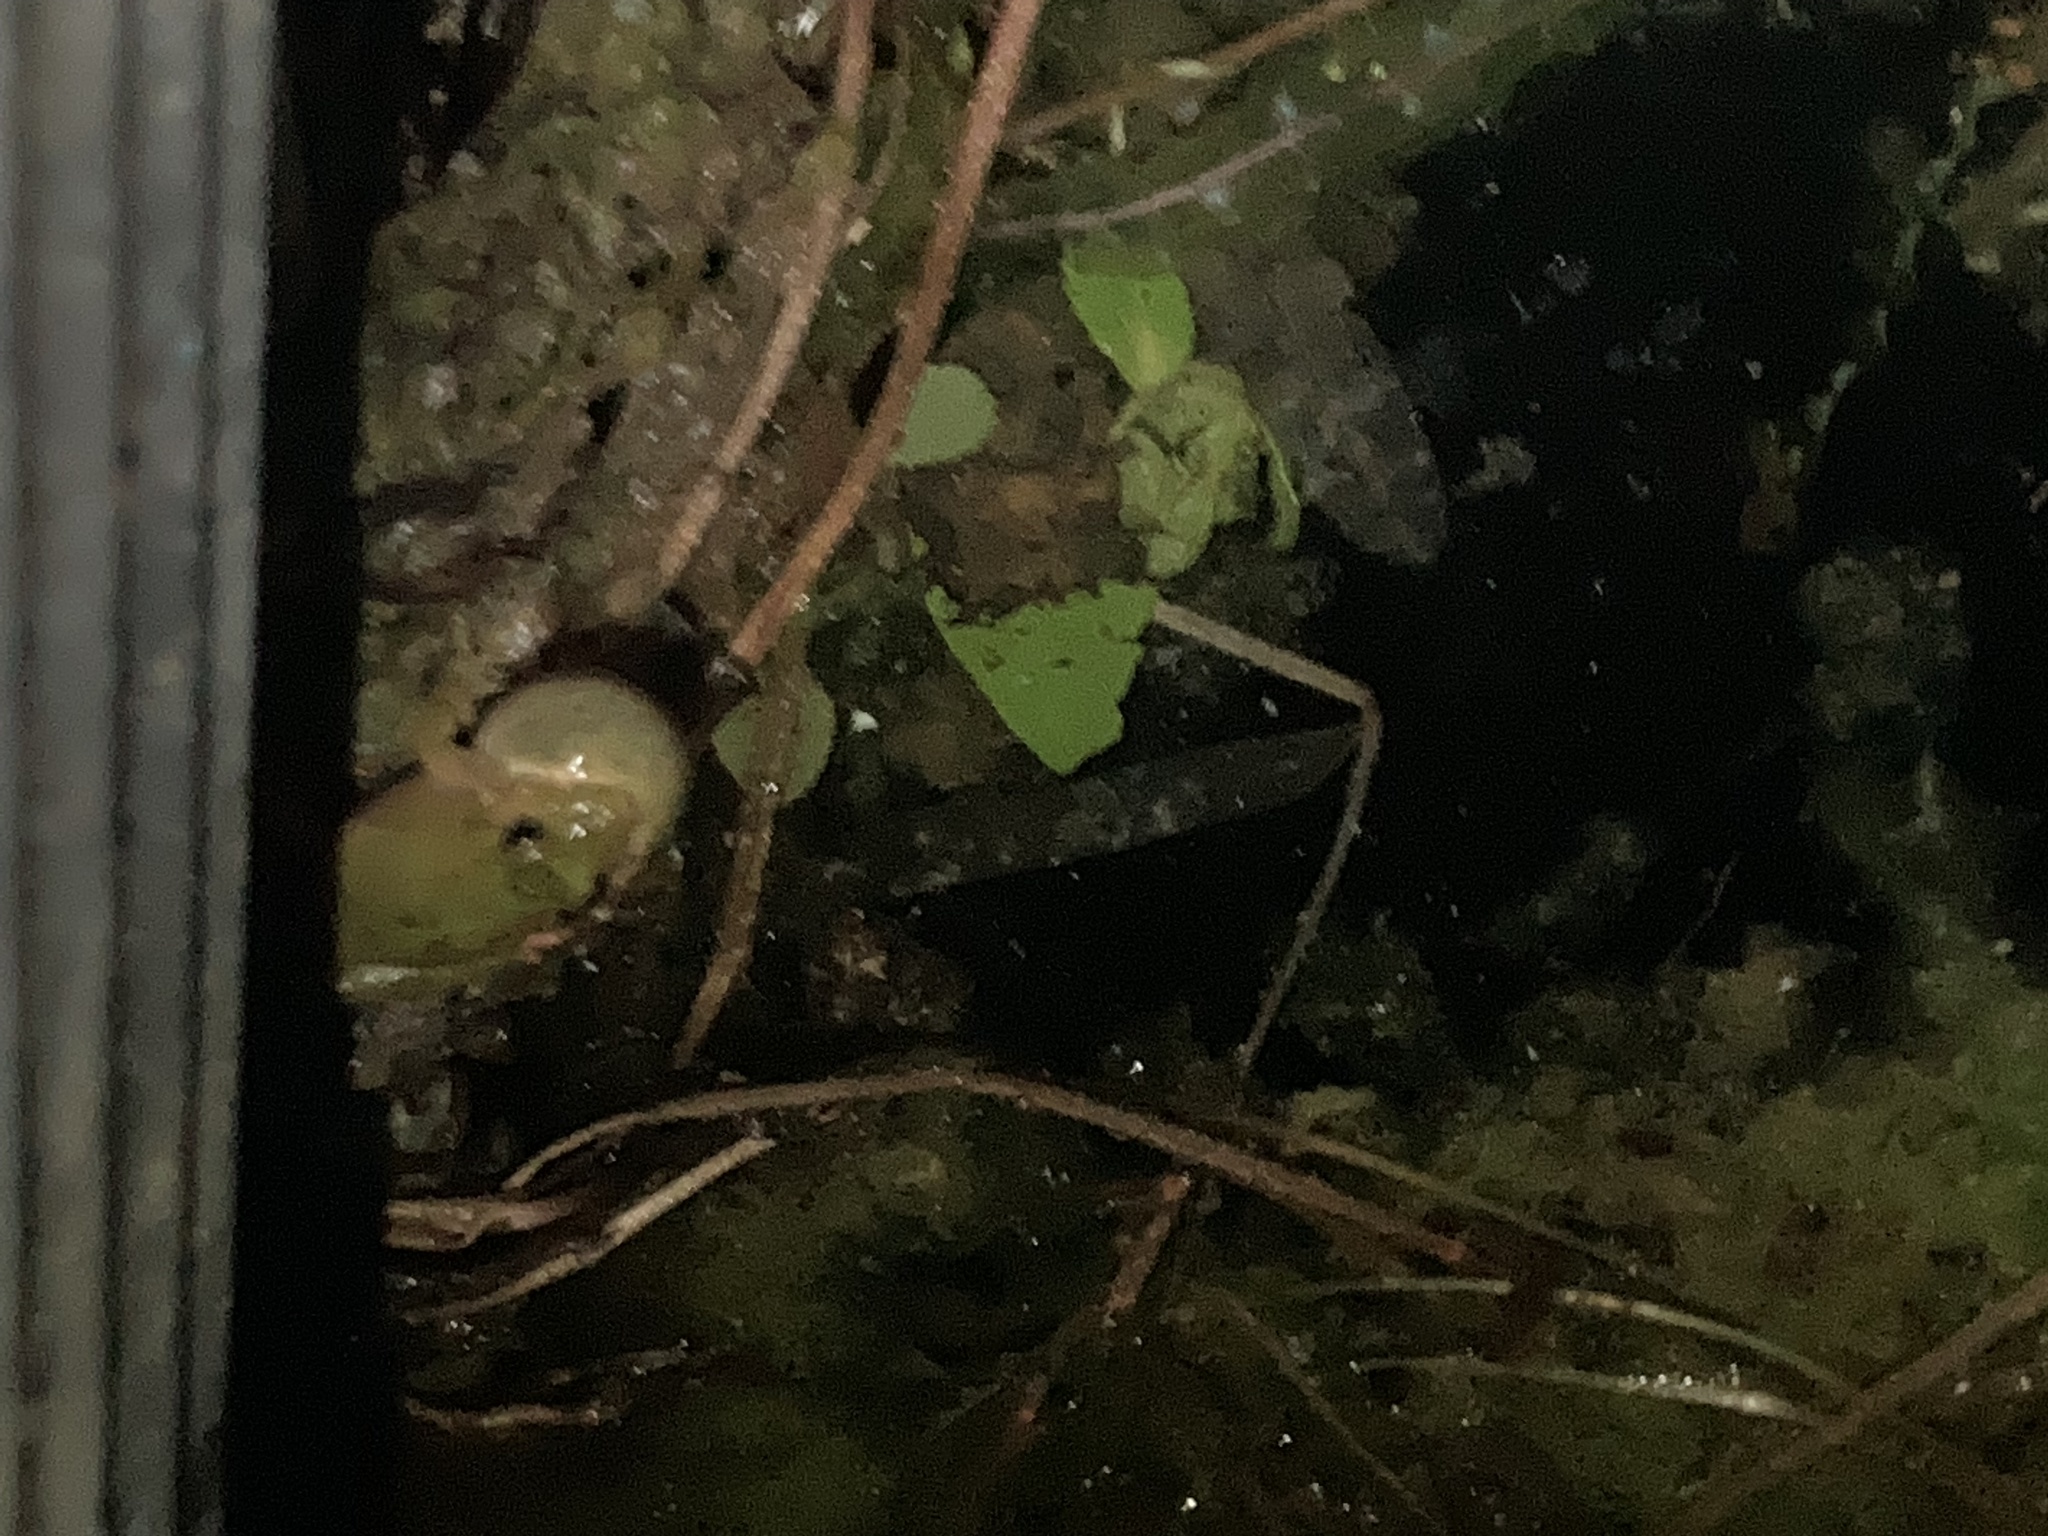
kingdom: Animalia
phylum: Chordata
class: Amphibia
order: Anura
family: Hylidae
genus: Acris
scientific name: Acris blanchardi
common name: Blanchard's cricket frog
